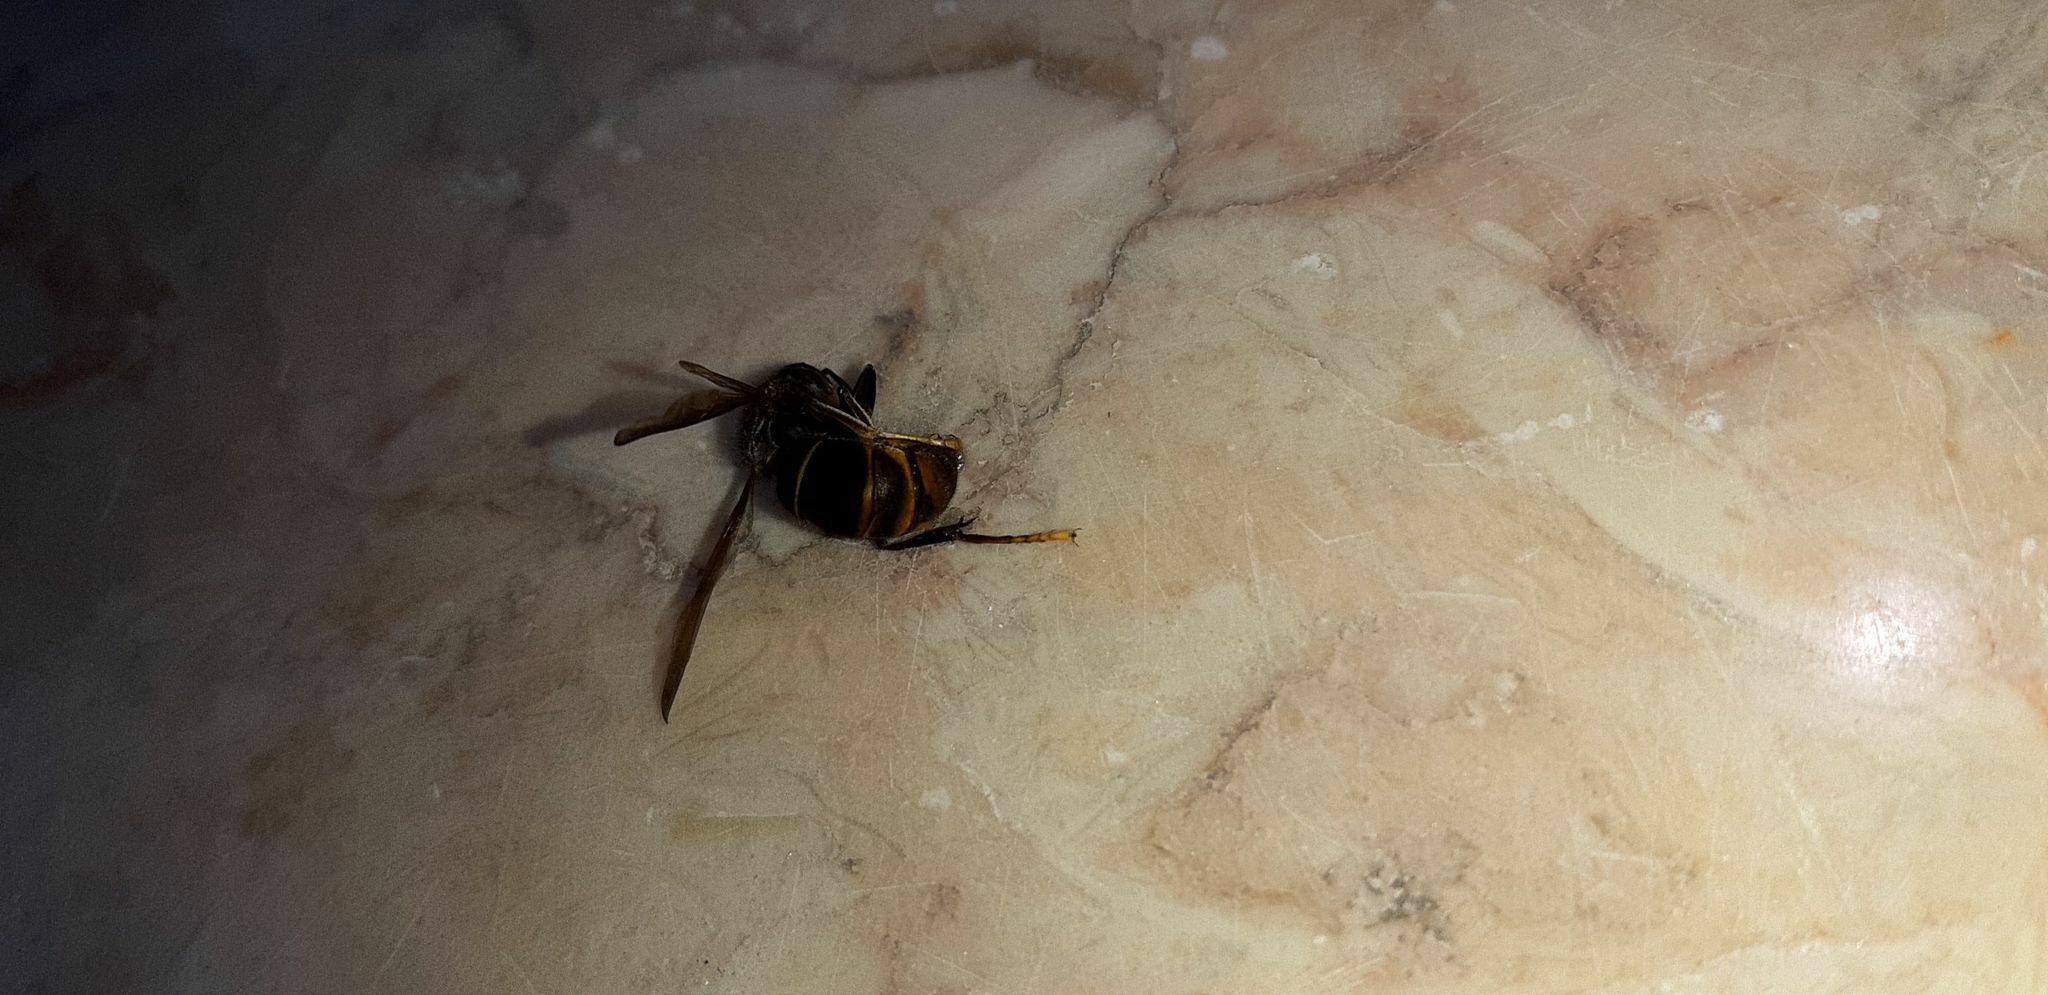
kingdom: Animalia
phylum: Arthropoda
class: Insecta
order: Hymenoptera
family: Vespidae
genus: Vespa
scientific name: Vespa velutina
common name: Asian hornet
